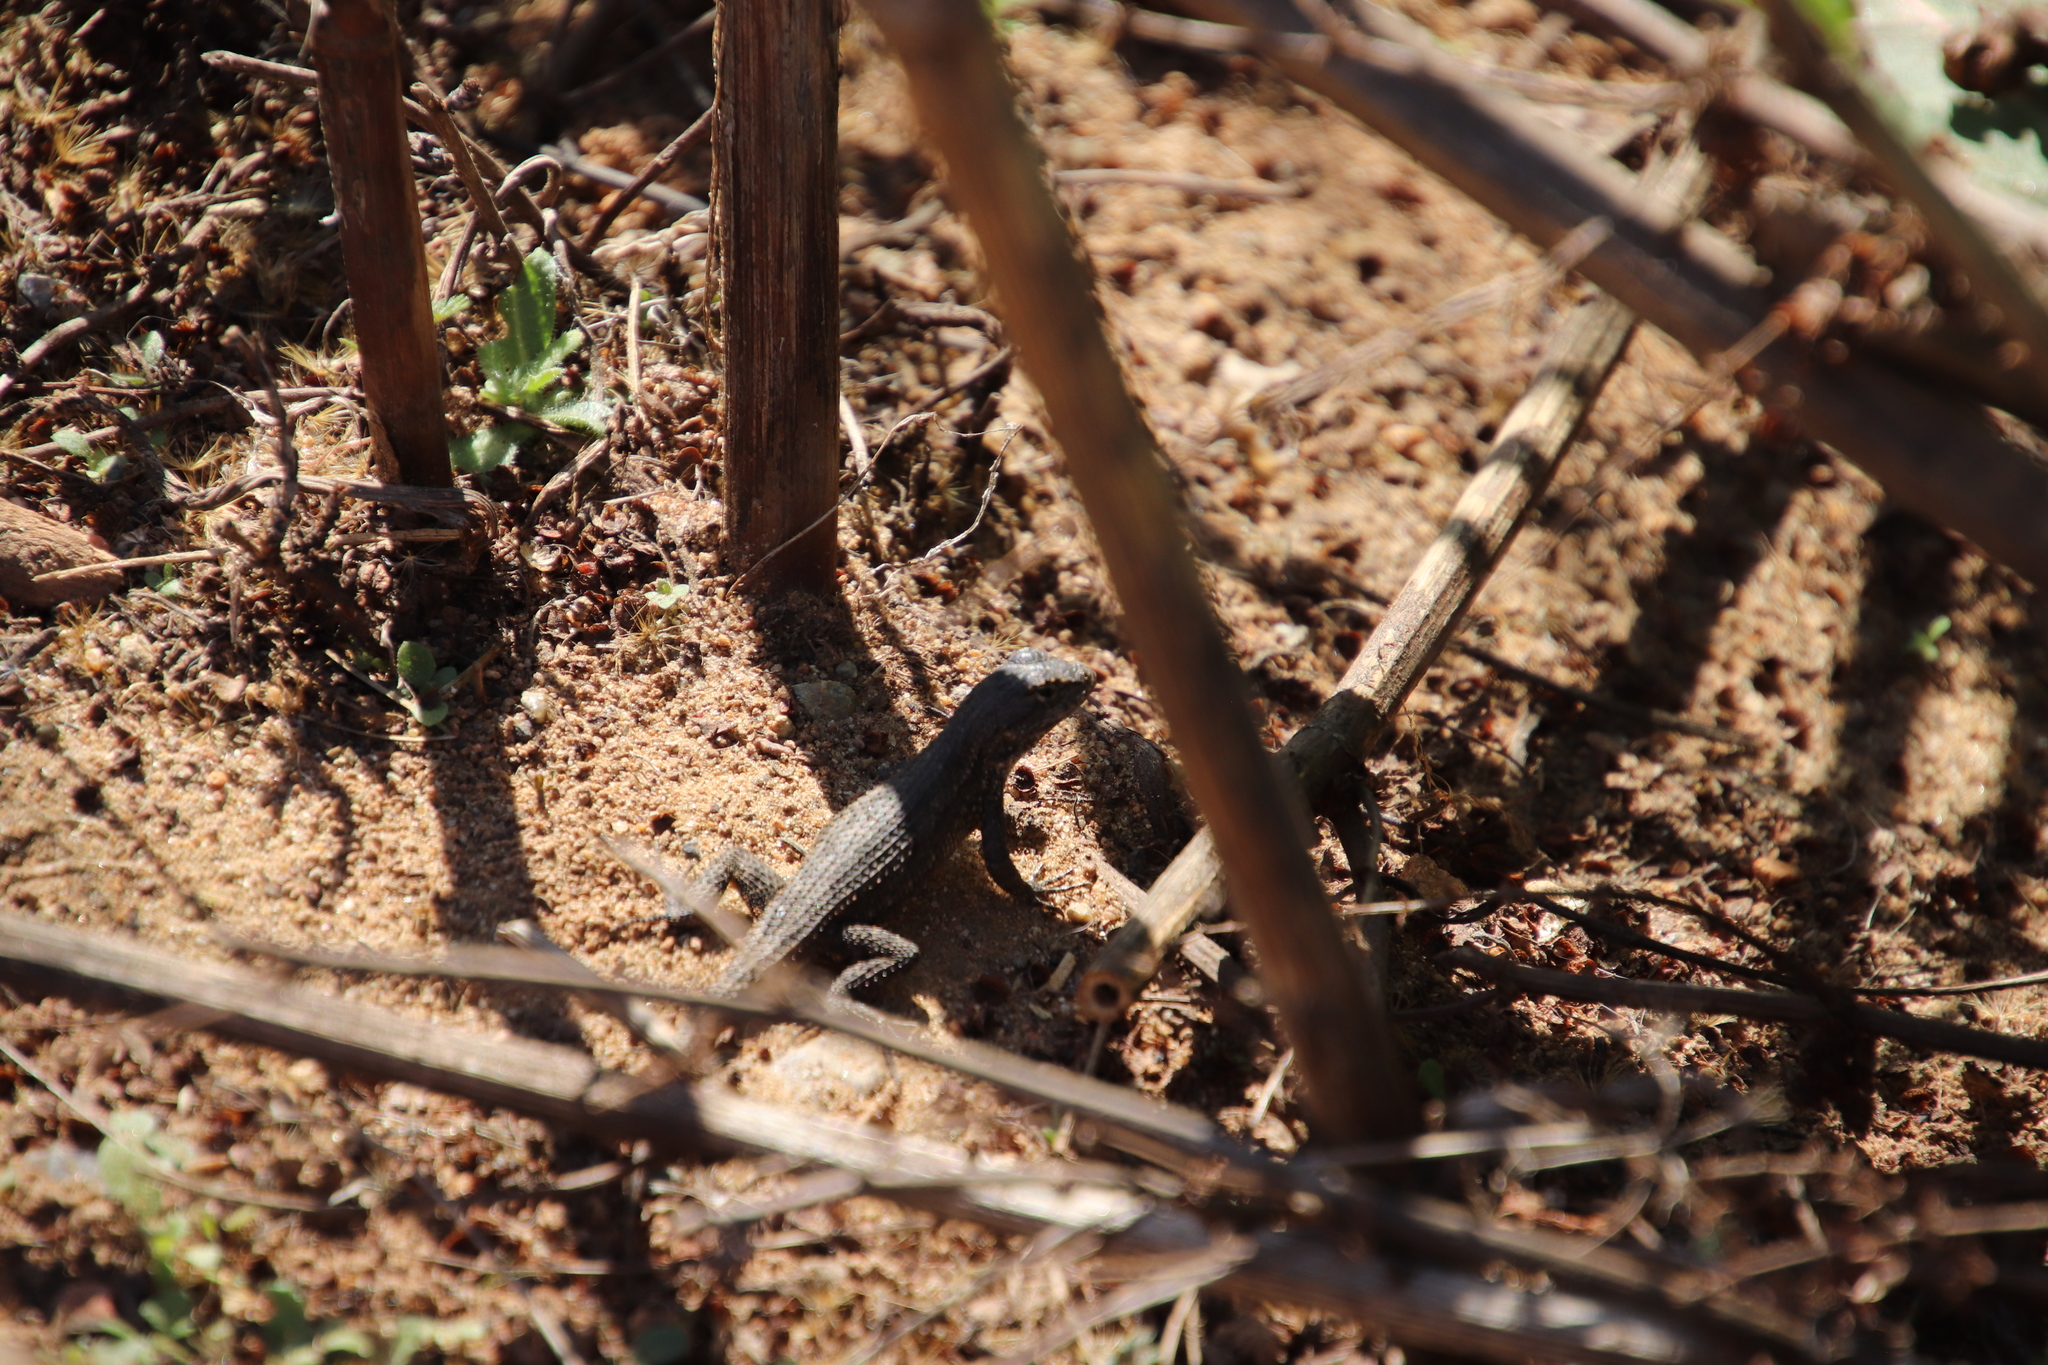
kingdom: Animalia
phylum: Chordata
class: Squamata
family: Phrynosomatidae
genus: Sceloporus
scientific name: Sceloporus occidentalis
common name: Western fence lizard
